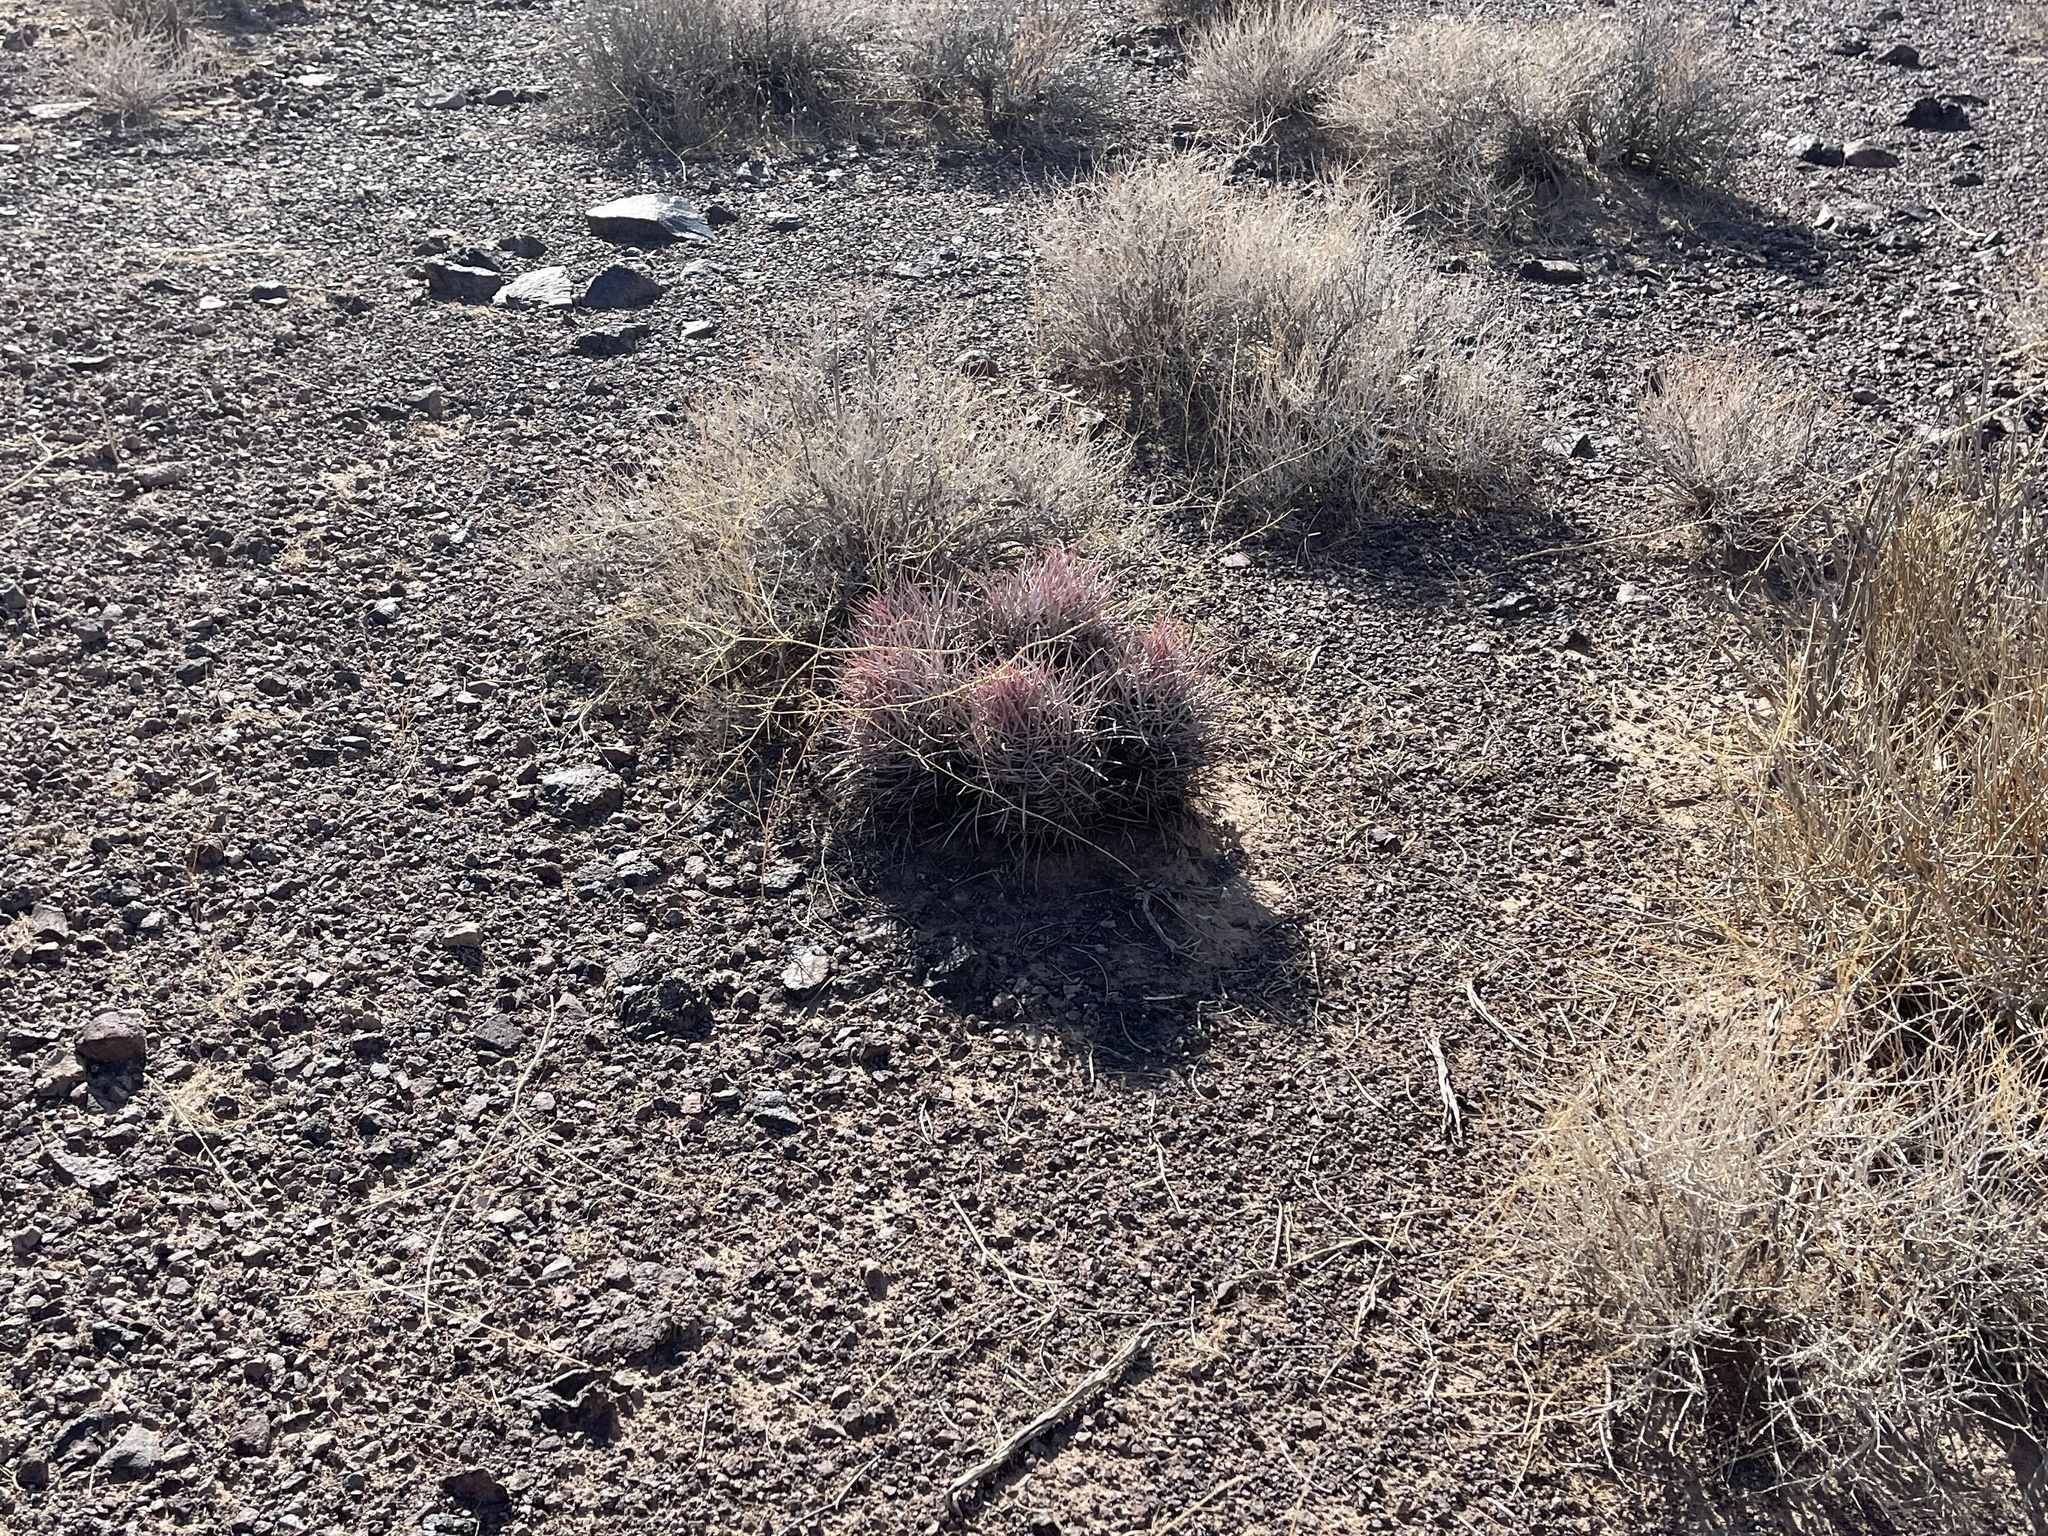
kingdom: Plantae
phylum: Tracheophyta
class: Magnoliopsida
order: Caryophyllales
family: Cactaceae
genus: Echinocactus
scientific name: Echinocactus polycephalus
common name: Cottontop cactus
